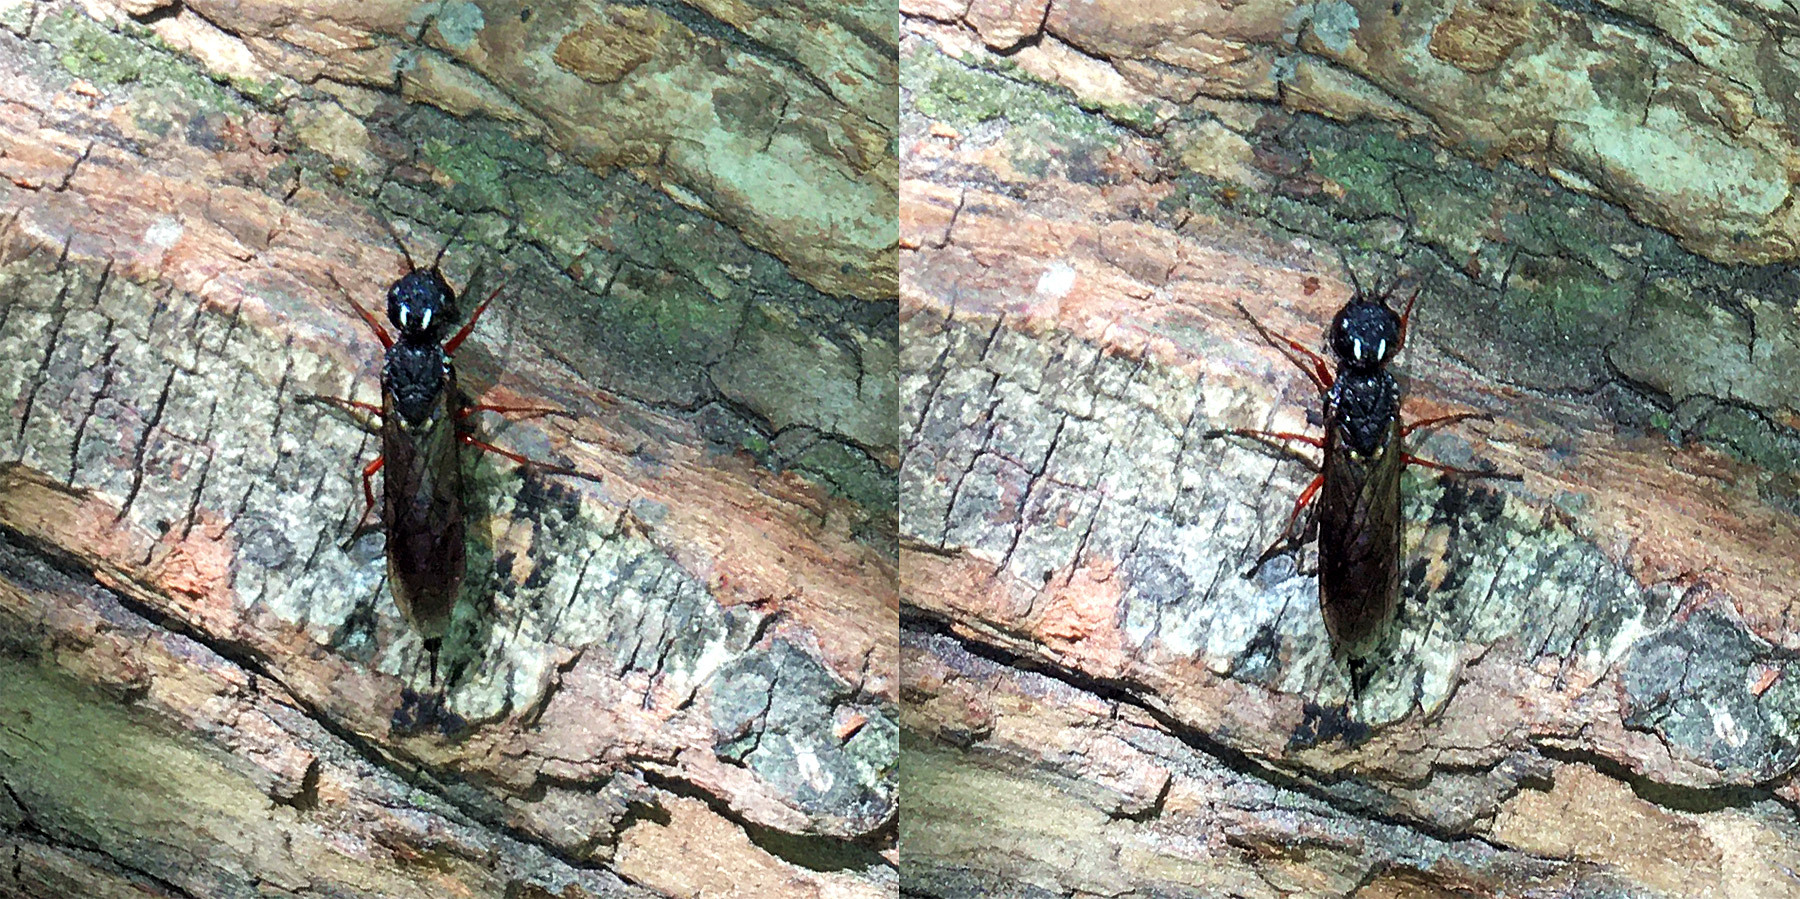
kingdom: Animalia
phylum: Arthropoda
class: Insecta
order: Hymenoptera
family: Xiphydriidae
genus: Xiphydria
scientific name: Xiphydria camelus
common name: Alder wood-wasp
